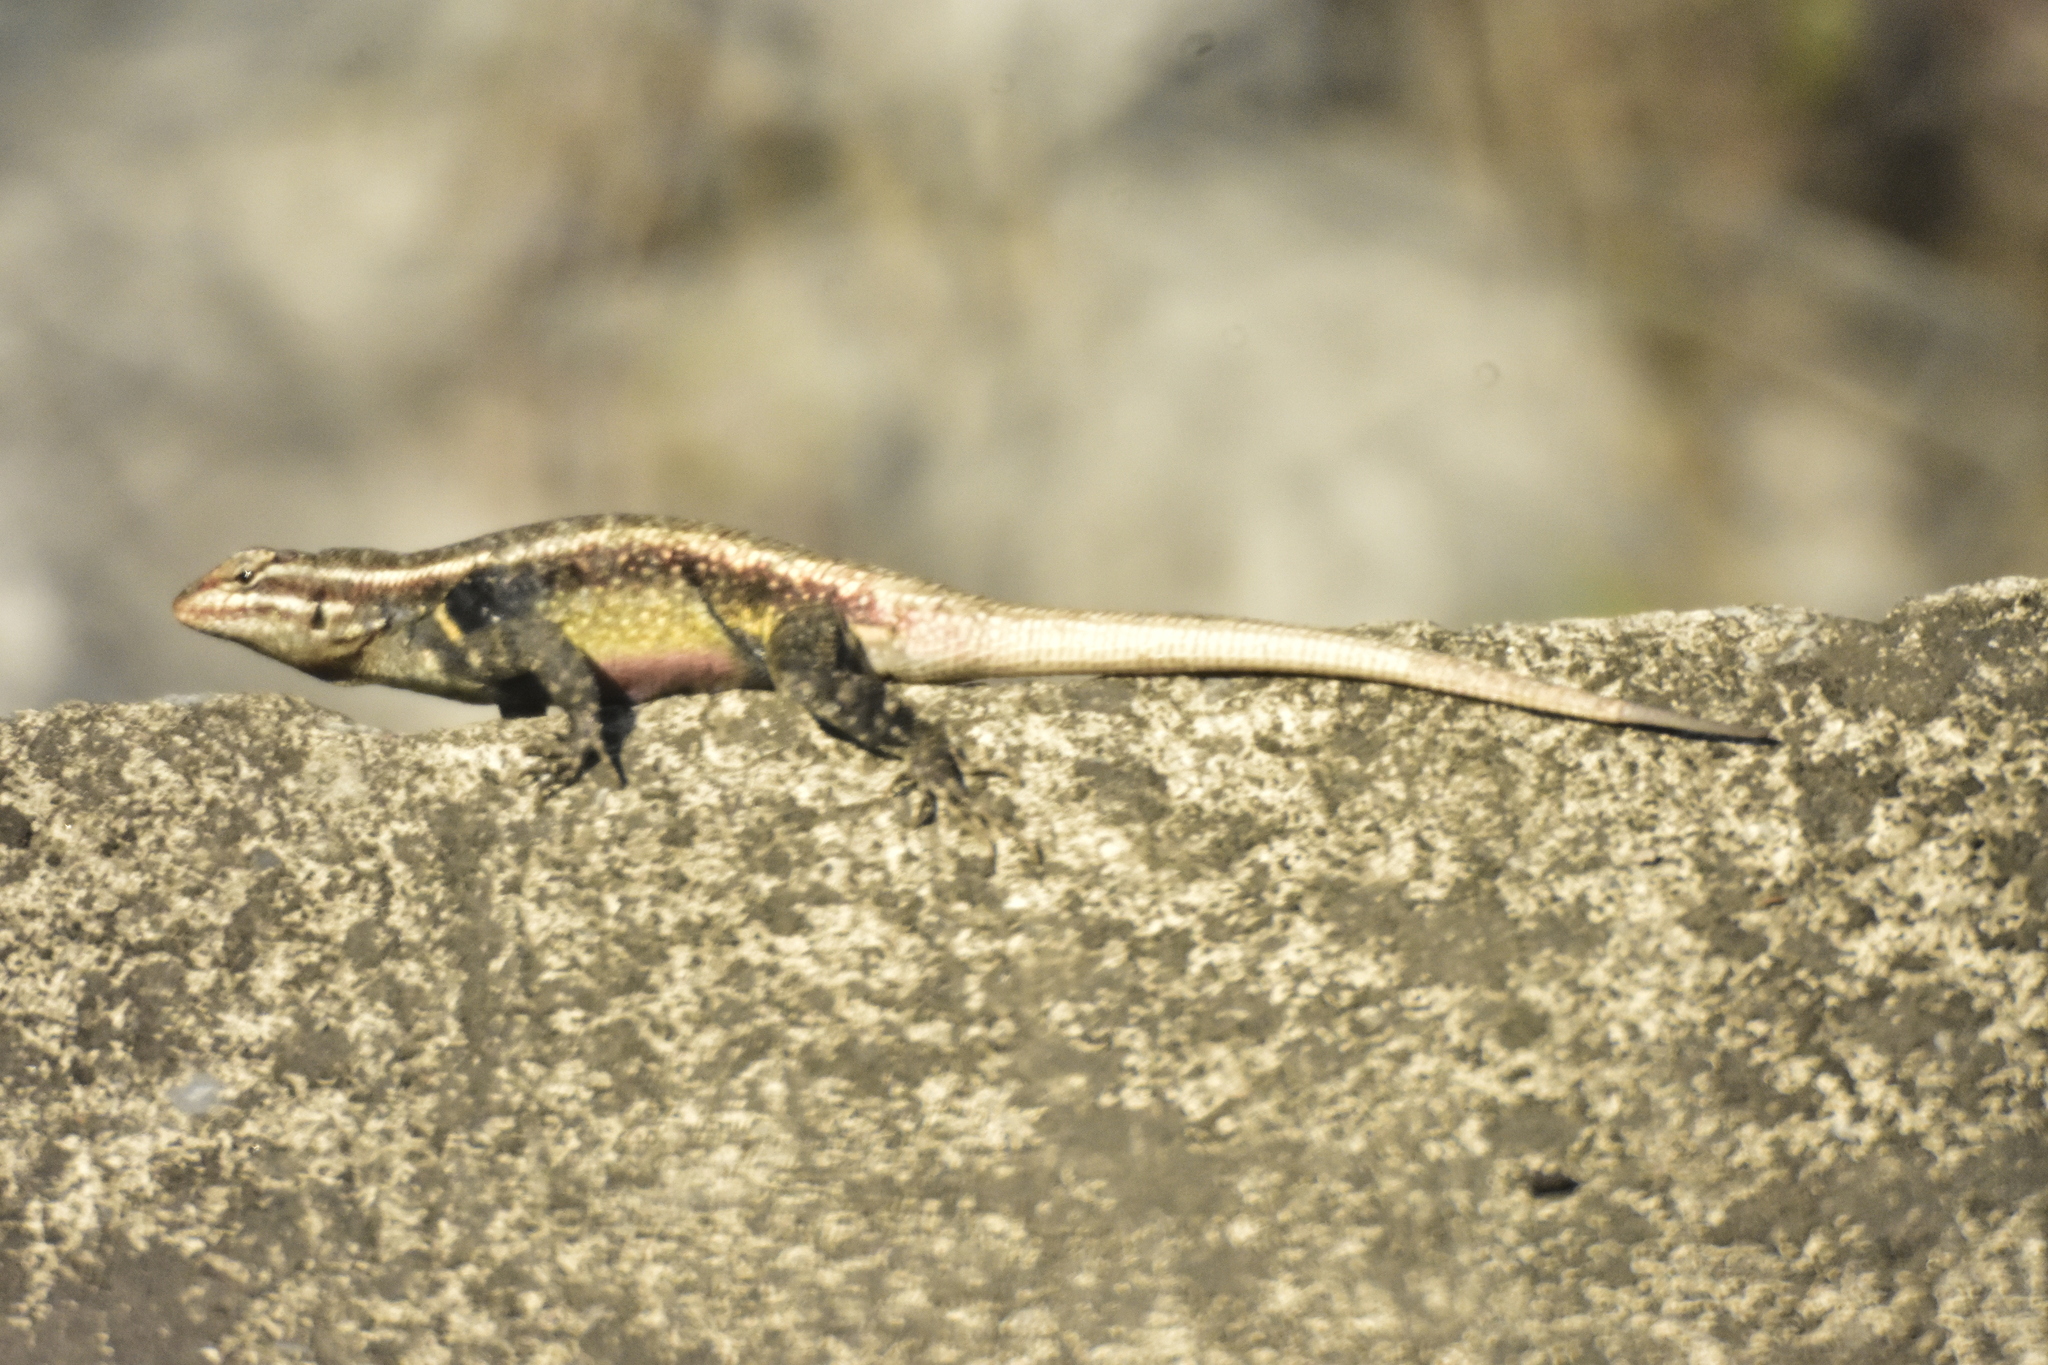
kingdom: Animalia
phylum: Chordata
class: Squamata
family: Phrynosomatidae
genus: Sceloporus
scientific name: Sceloporus variabilis
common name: Rosebelly lizard
